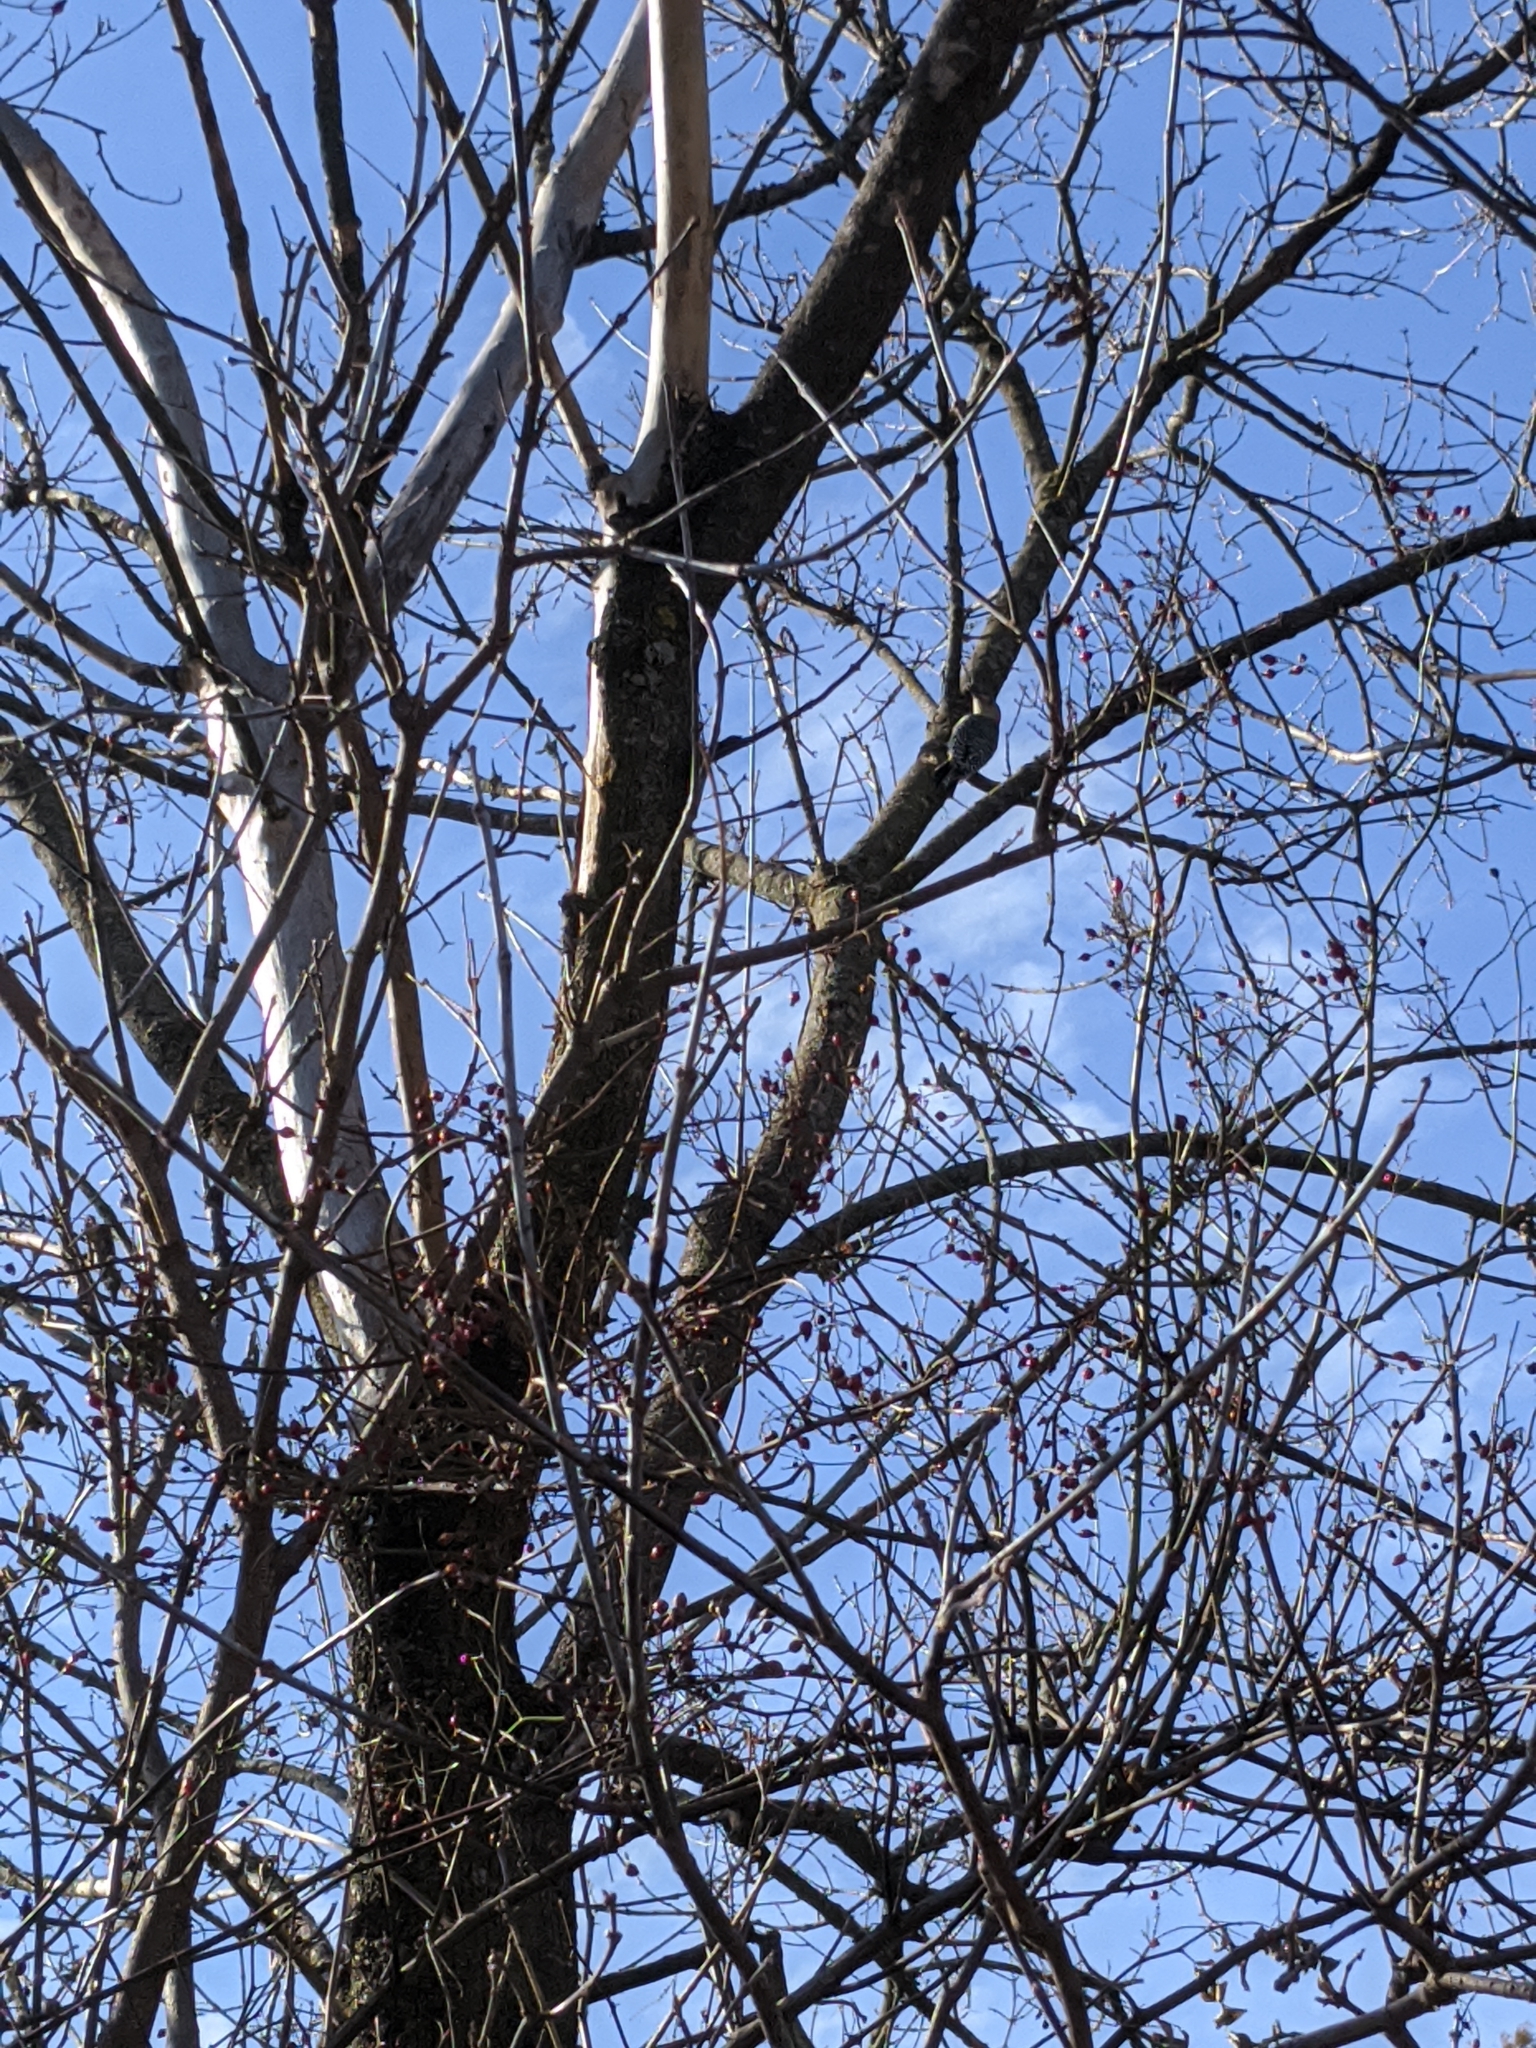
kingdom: Animalia
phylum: Chordata
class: Aves
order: Piciformes
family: Picidae
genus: Melanerpes
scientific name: Melanerpes carolinus
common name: Red-bellied woodpecker
